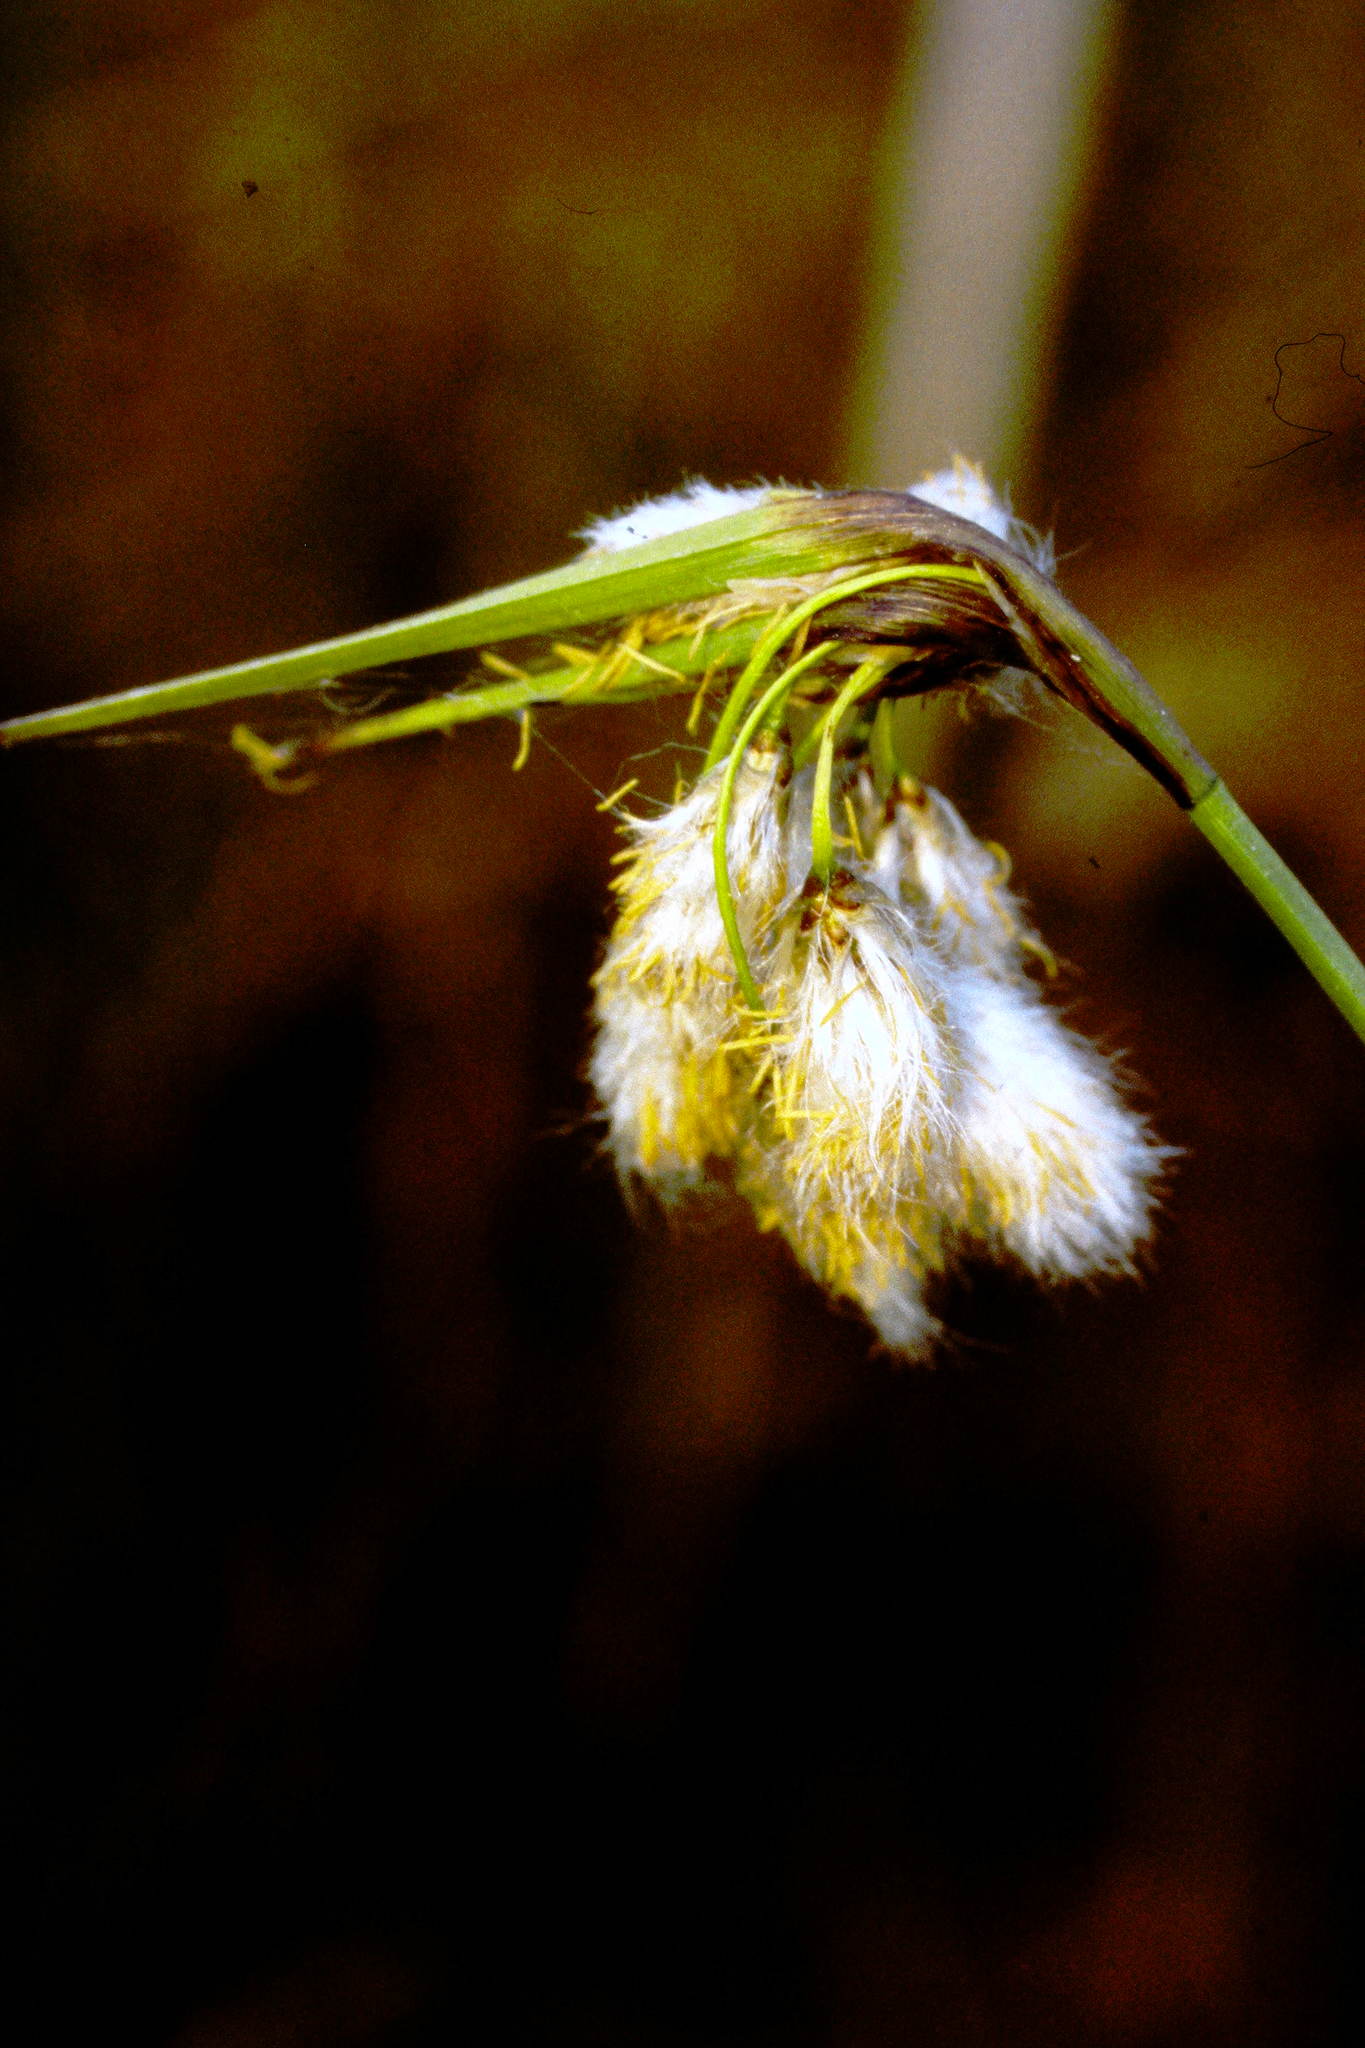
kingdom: Plantae
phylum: Tracheophyta
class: Liliopsida
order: Poales
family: Cyperaceae
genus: Eriophorum
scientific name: Eriophorum angustifolium
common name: Common cottongrass
